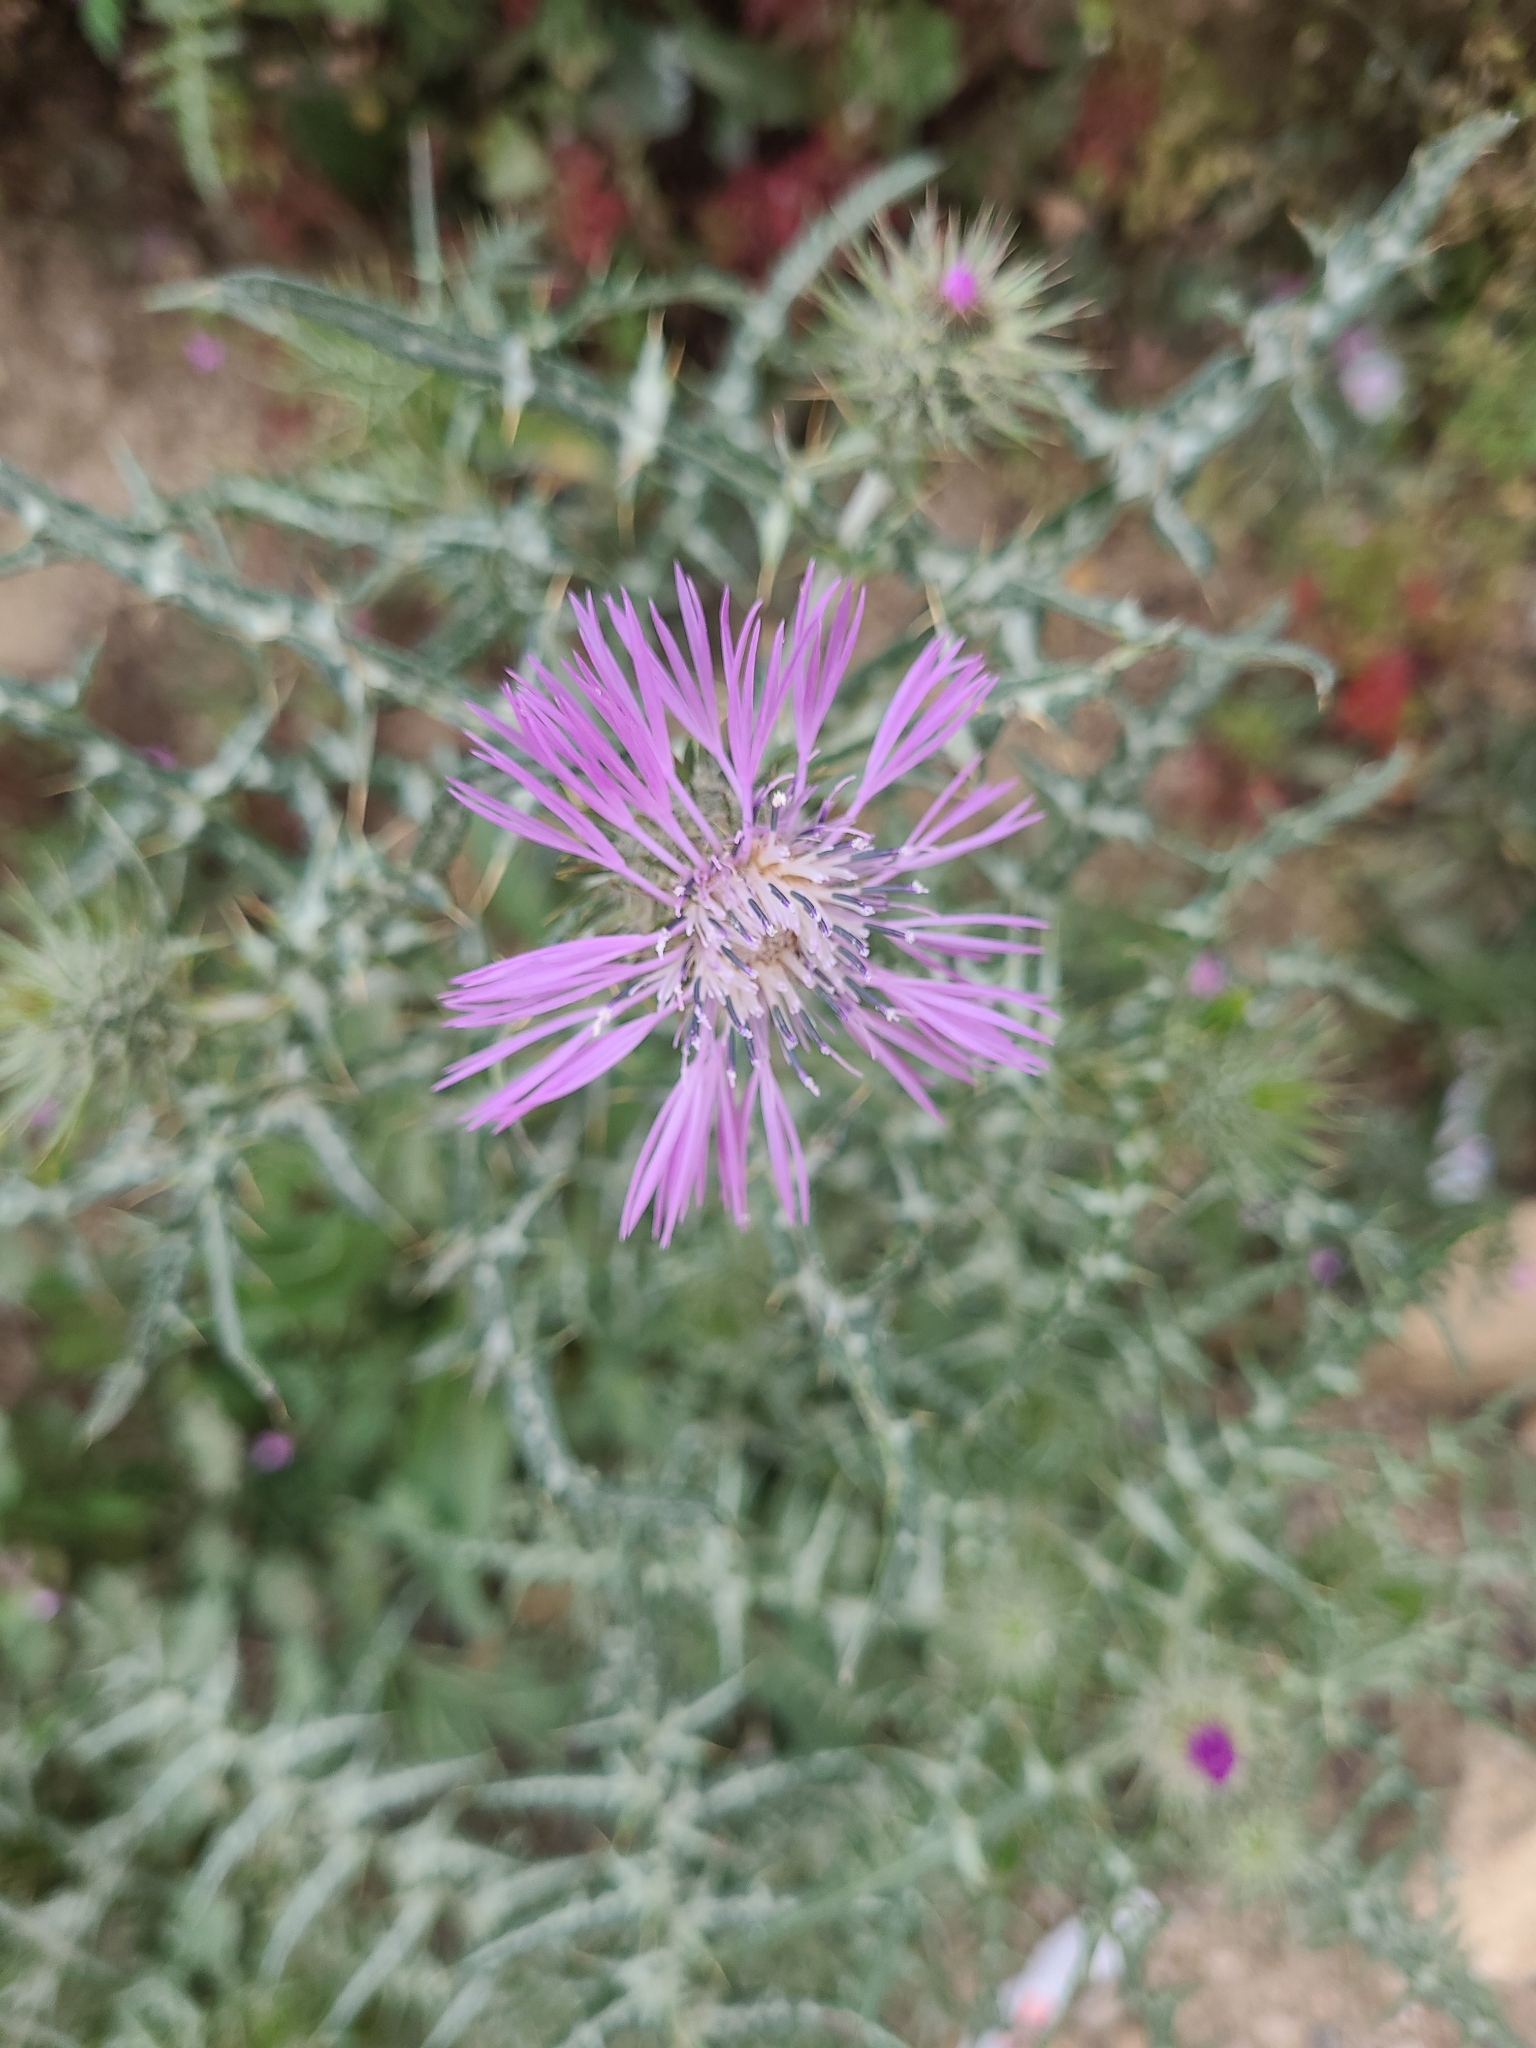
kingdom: Plantae
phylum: Tracheophyta
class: Magnoliopsida
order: Asterales
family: Asteraceae
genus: Galactites
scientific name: Galactites tomentosa
